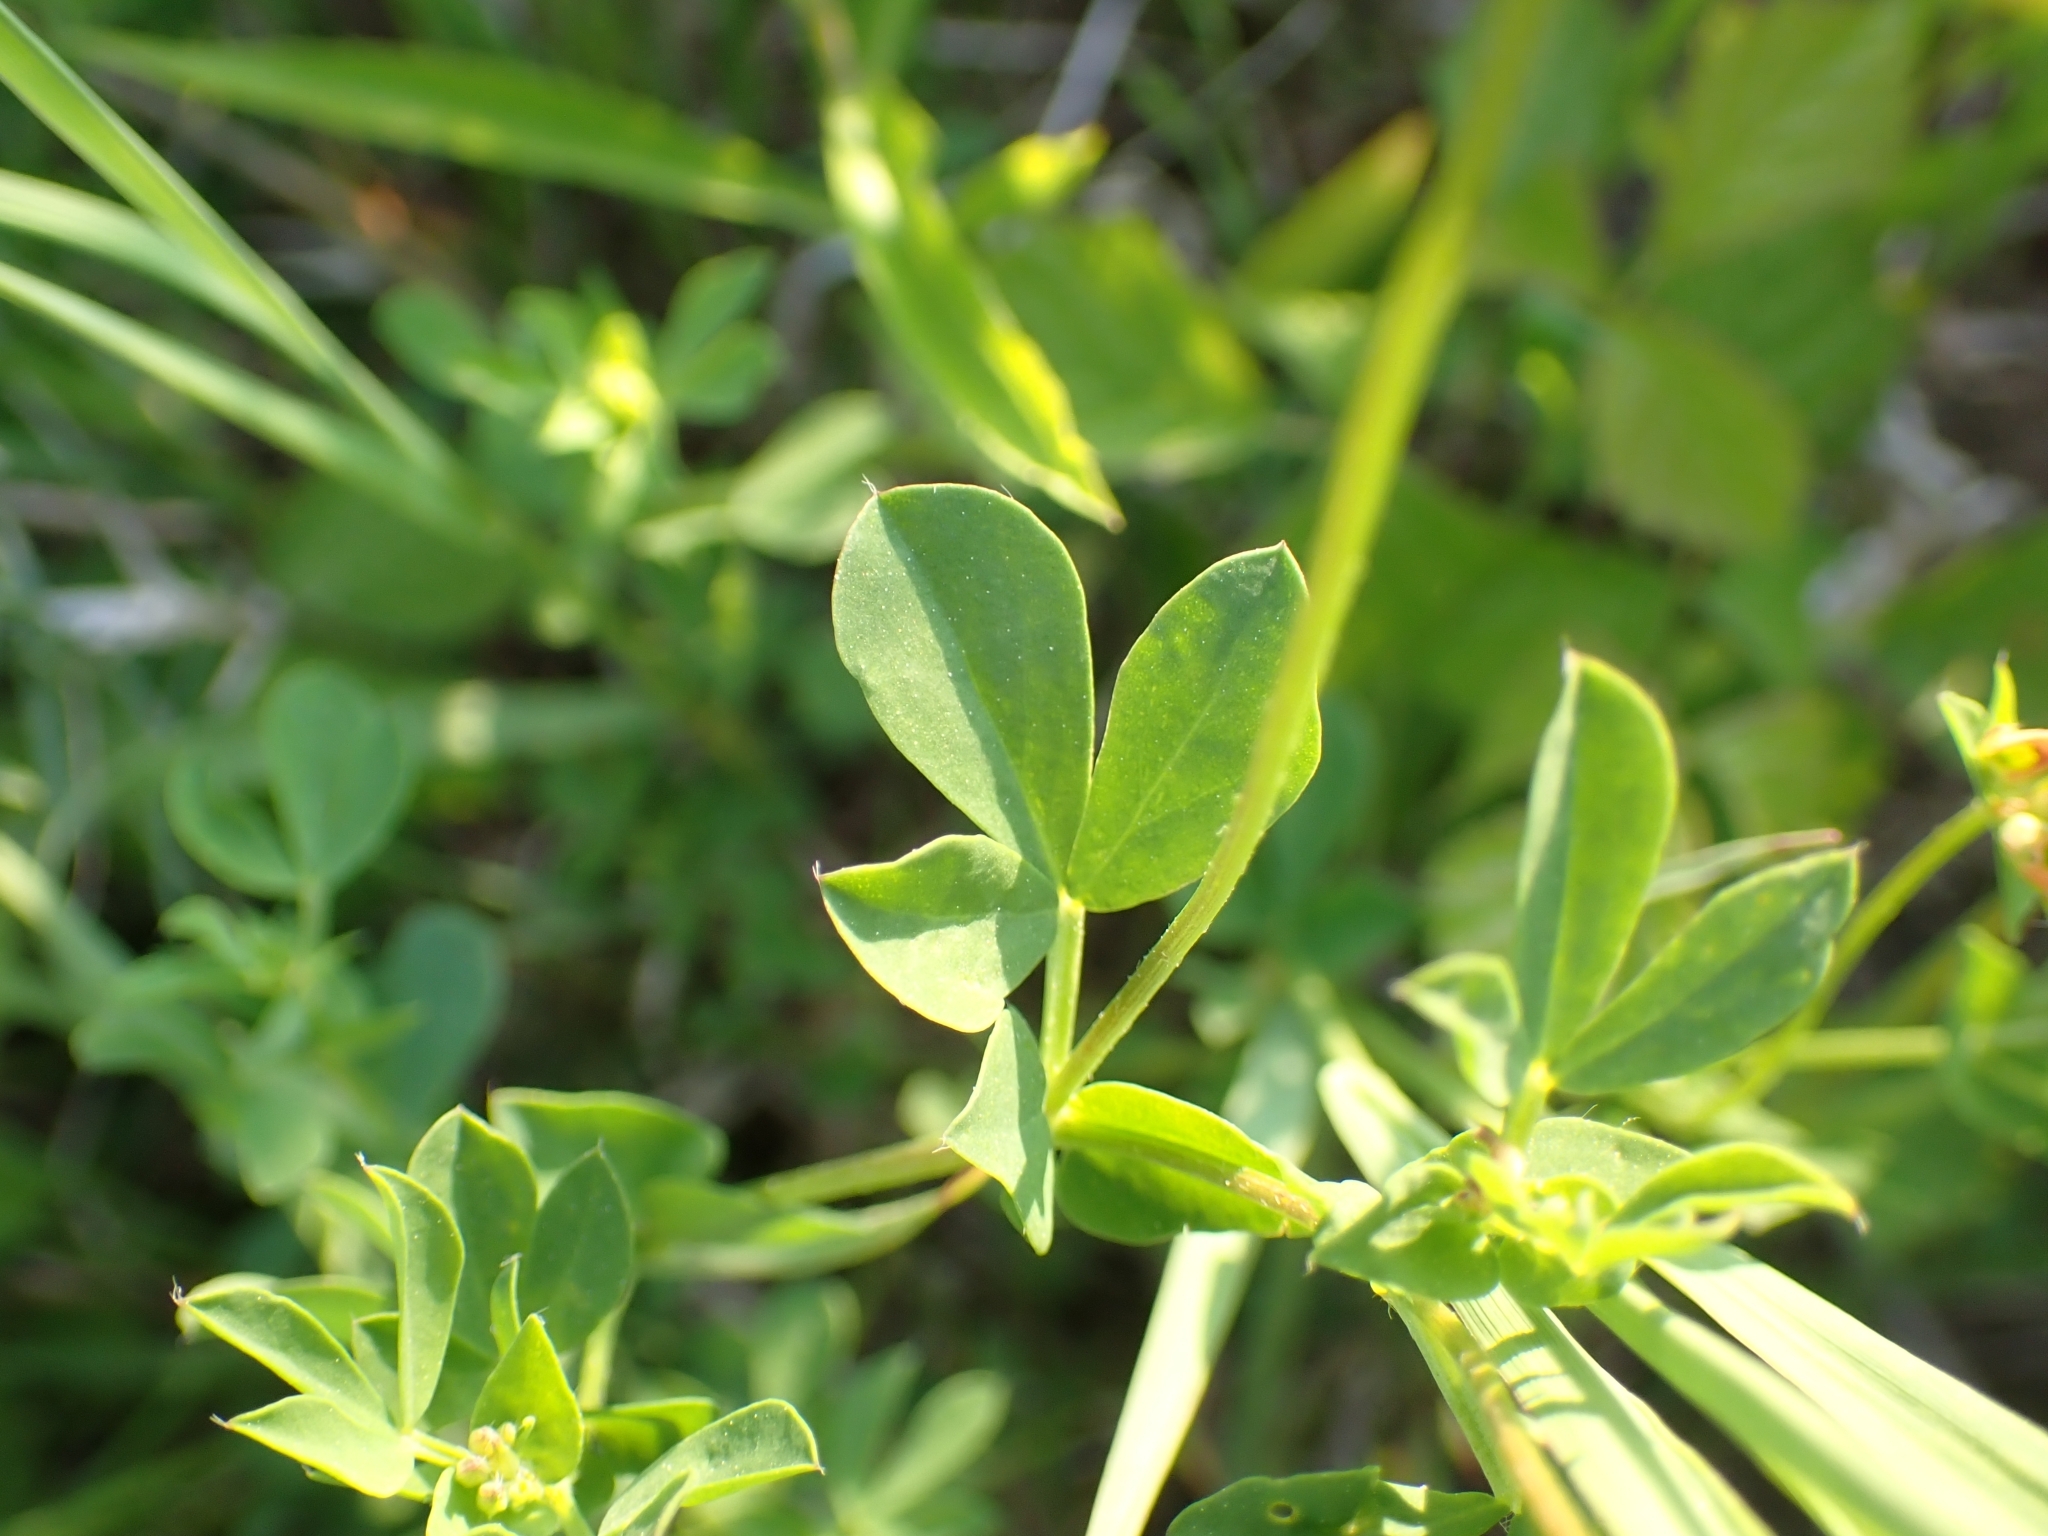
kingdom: Plantae
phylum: Tracheophyta
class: Magnoliopsida
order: Fabales
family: Fabaceae
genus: Lotus
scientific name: Lotus corniculatus
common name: Common bird's-foot-trefoil
